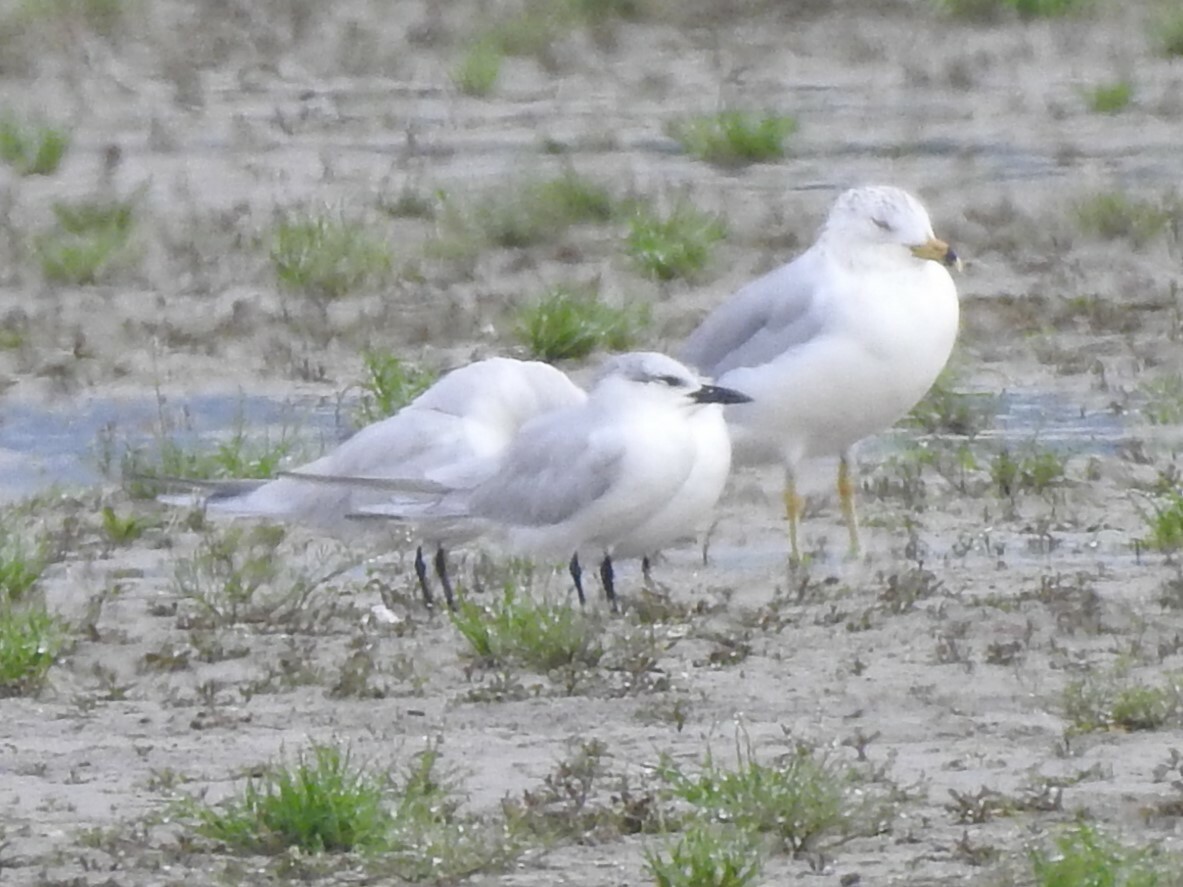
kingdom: Animalia
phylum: Chordata
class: Aves
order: Charadriiformes
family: Laridae
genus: Gelochelidon
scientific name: Gelochelidon nilotica
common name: Gull-billed tern
